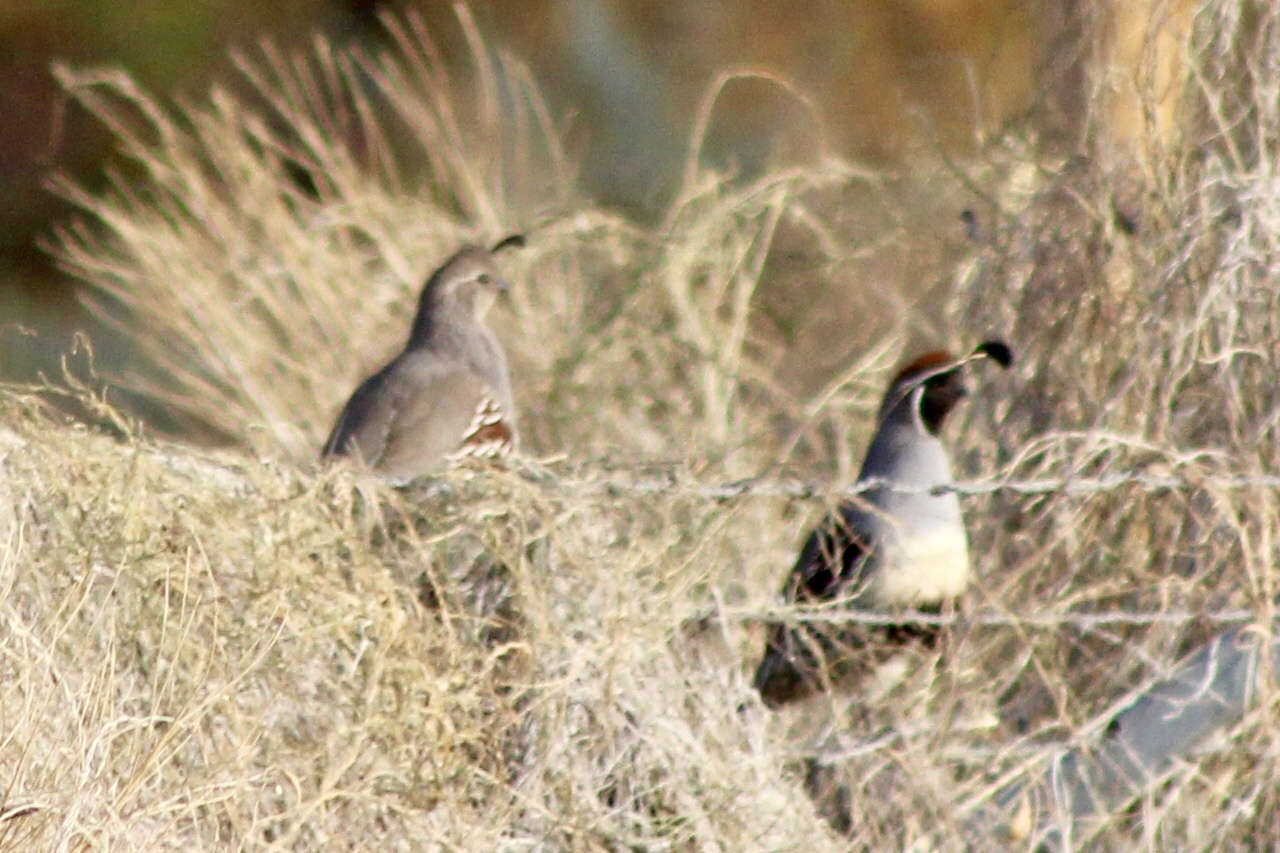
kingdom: Animalia
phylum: Chordata
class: Aves
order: Galliformes
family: Odontophoridae
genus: Callipepla
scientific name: Callipepla gambelii
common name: Gambel's quail
